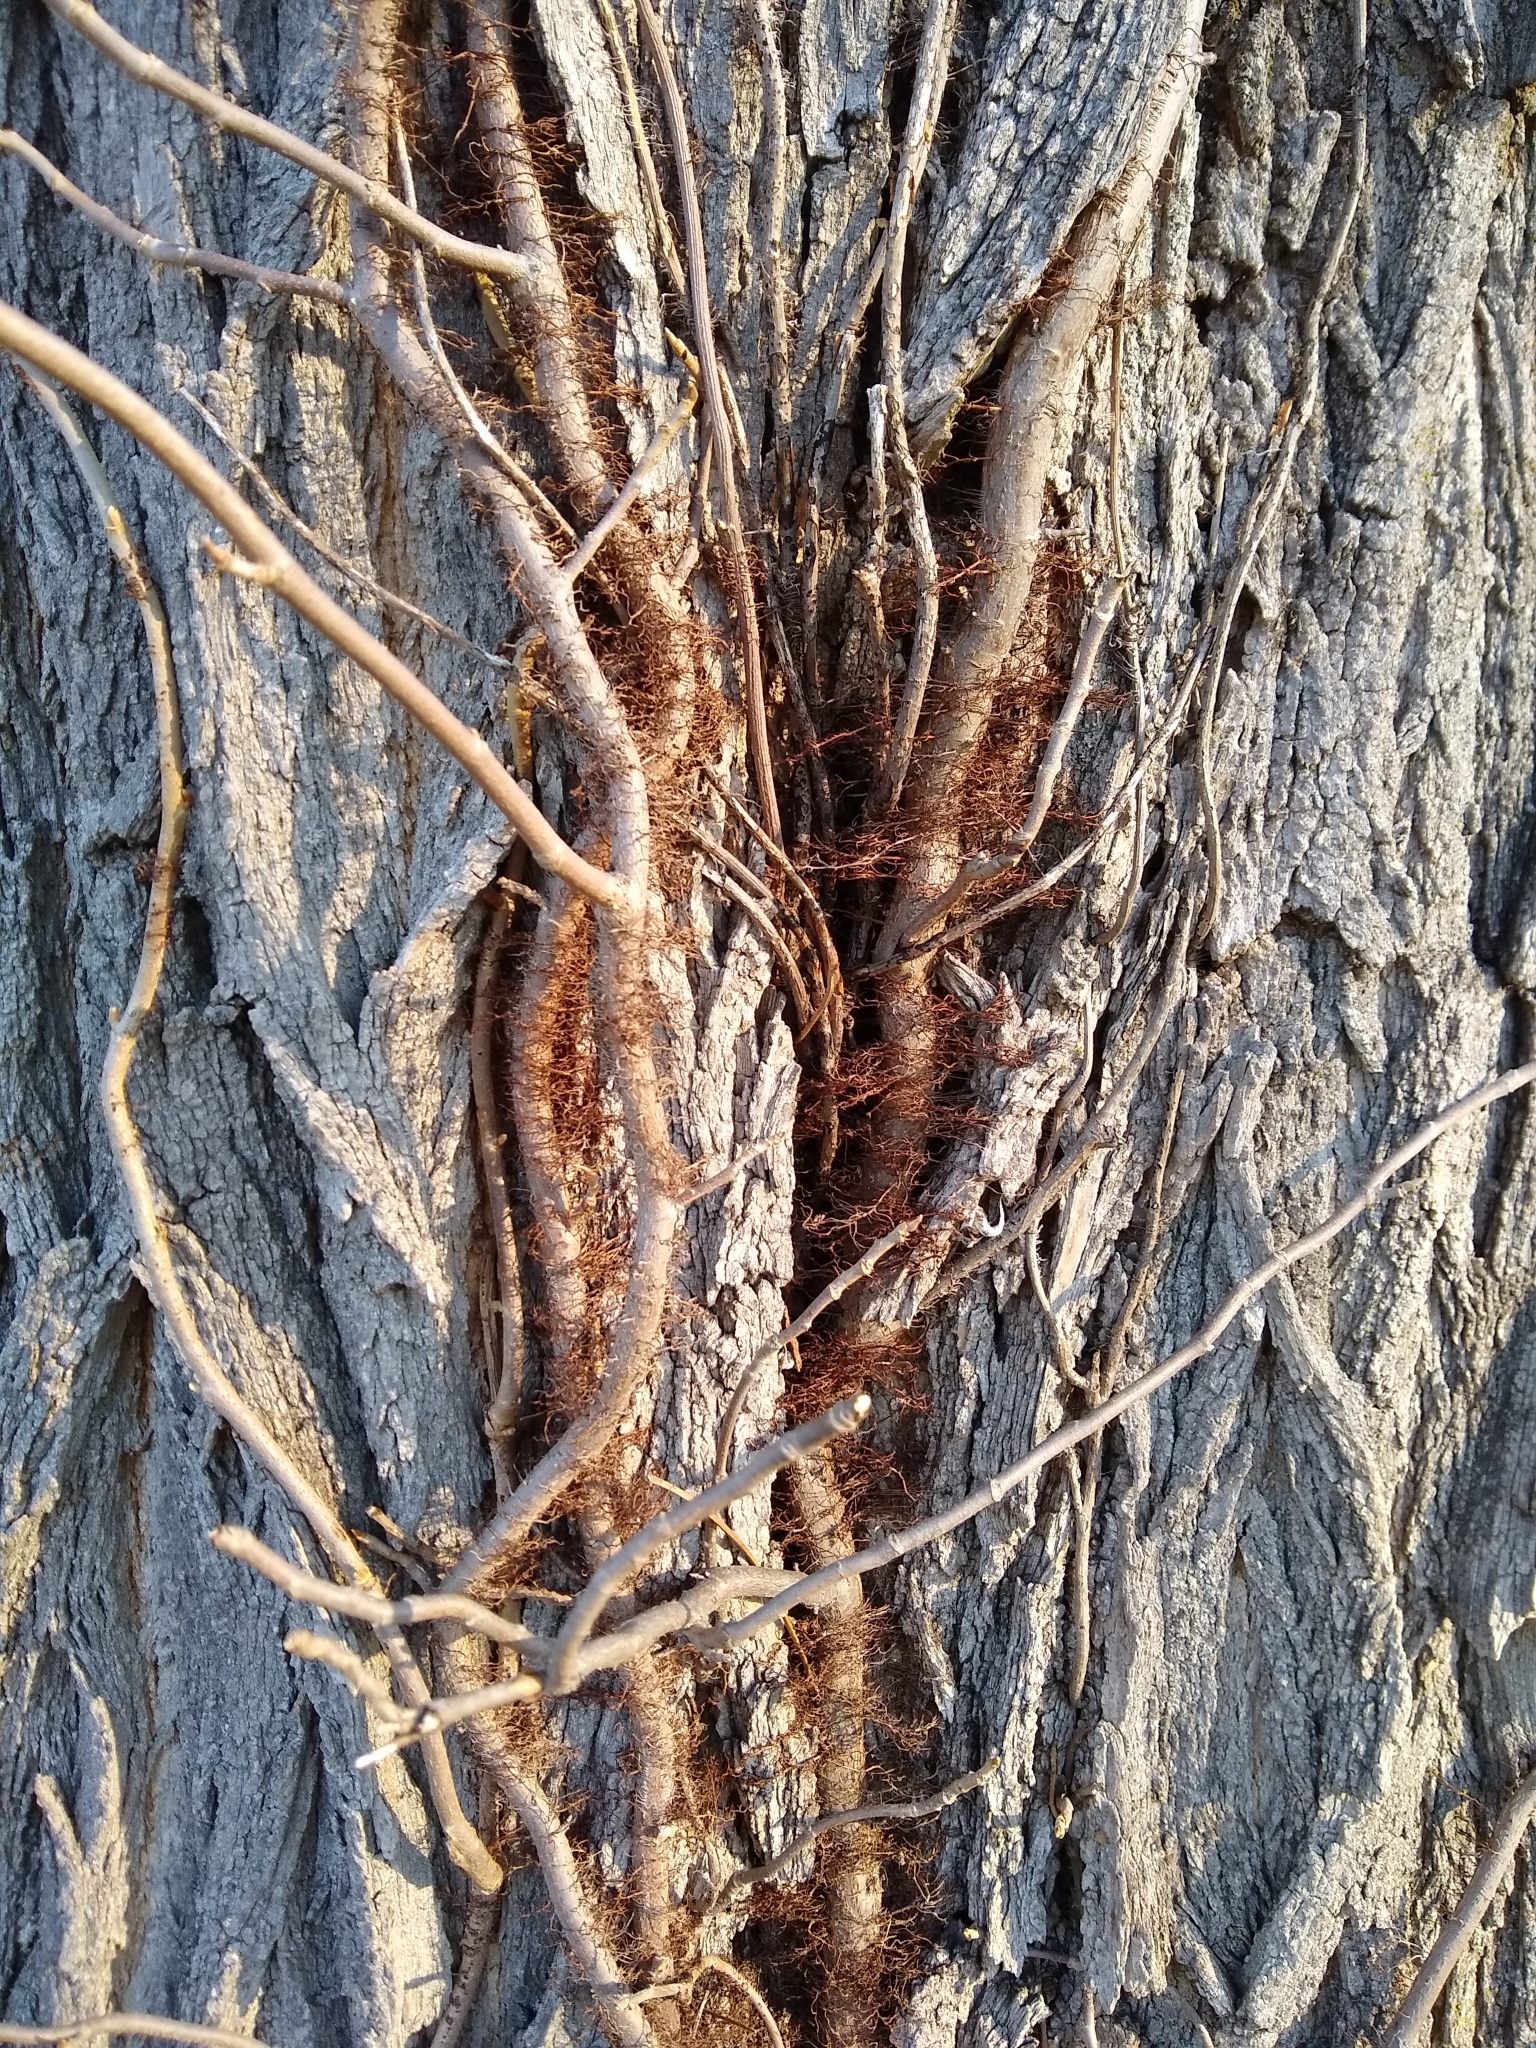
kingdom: Plantae
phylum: Tracheophyta
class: Magnoliopsida
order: Sapindales
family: Anacardiaceae
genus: Toxicodendron
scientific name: Toxicodendron radicans
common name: Poison ivy
